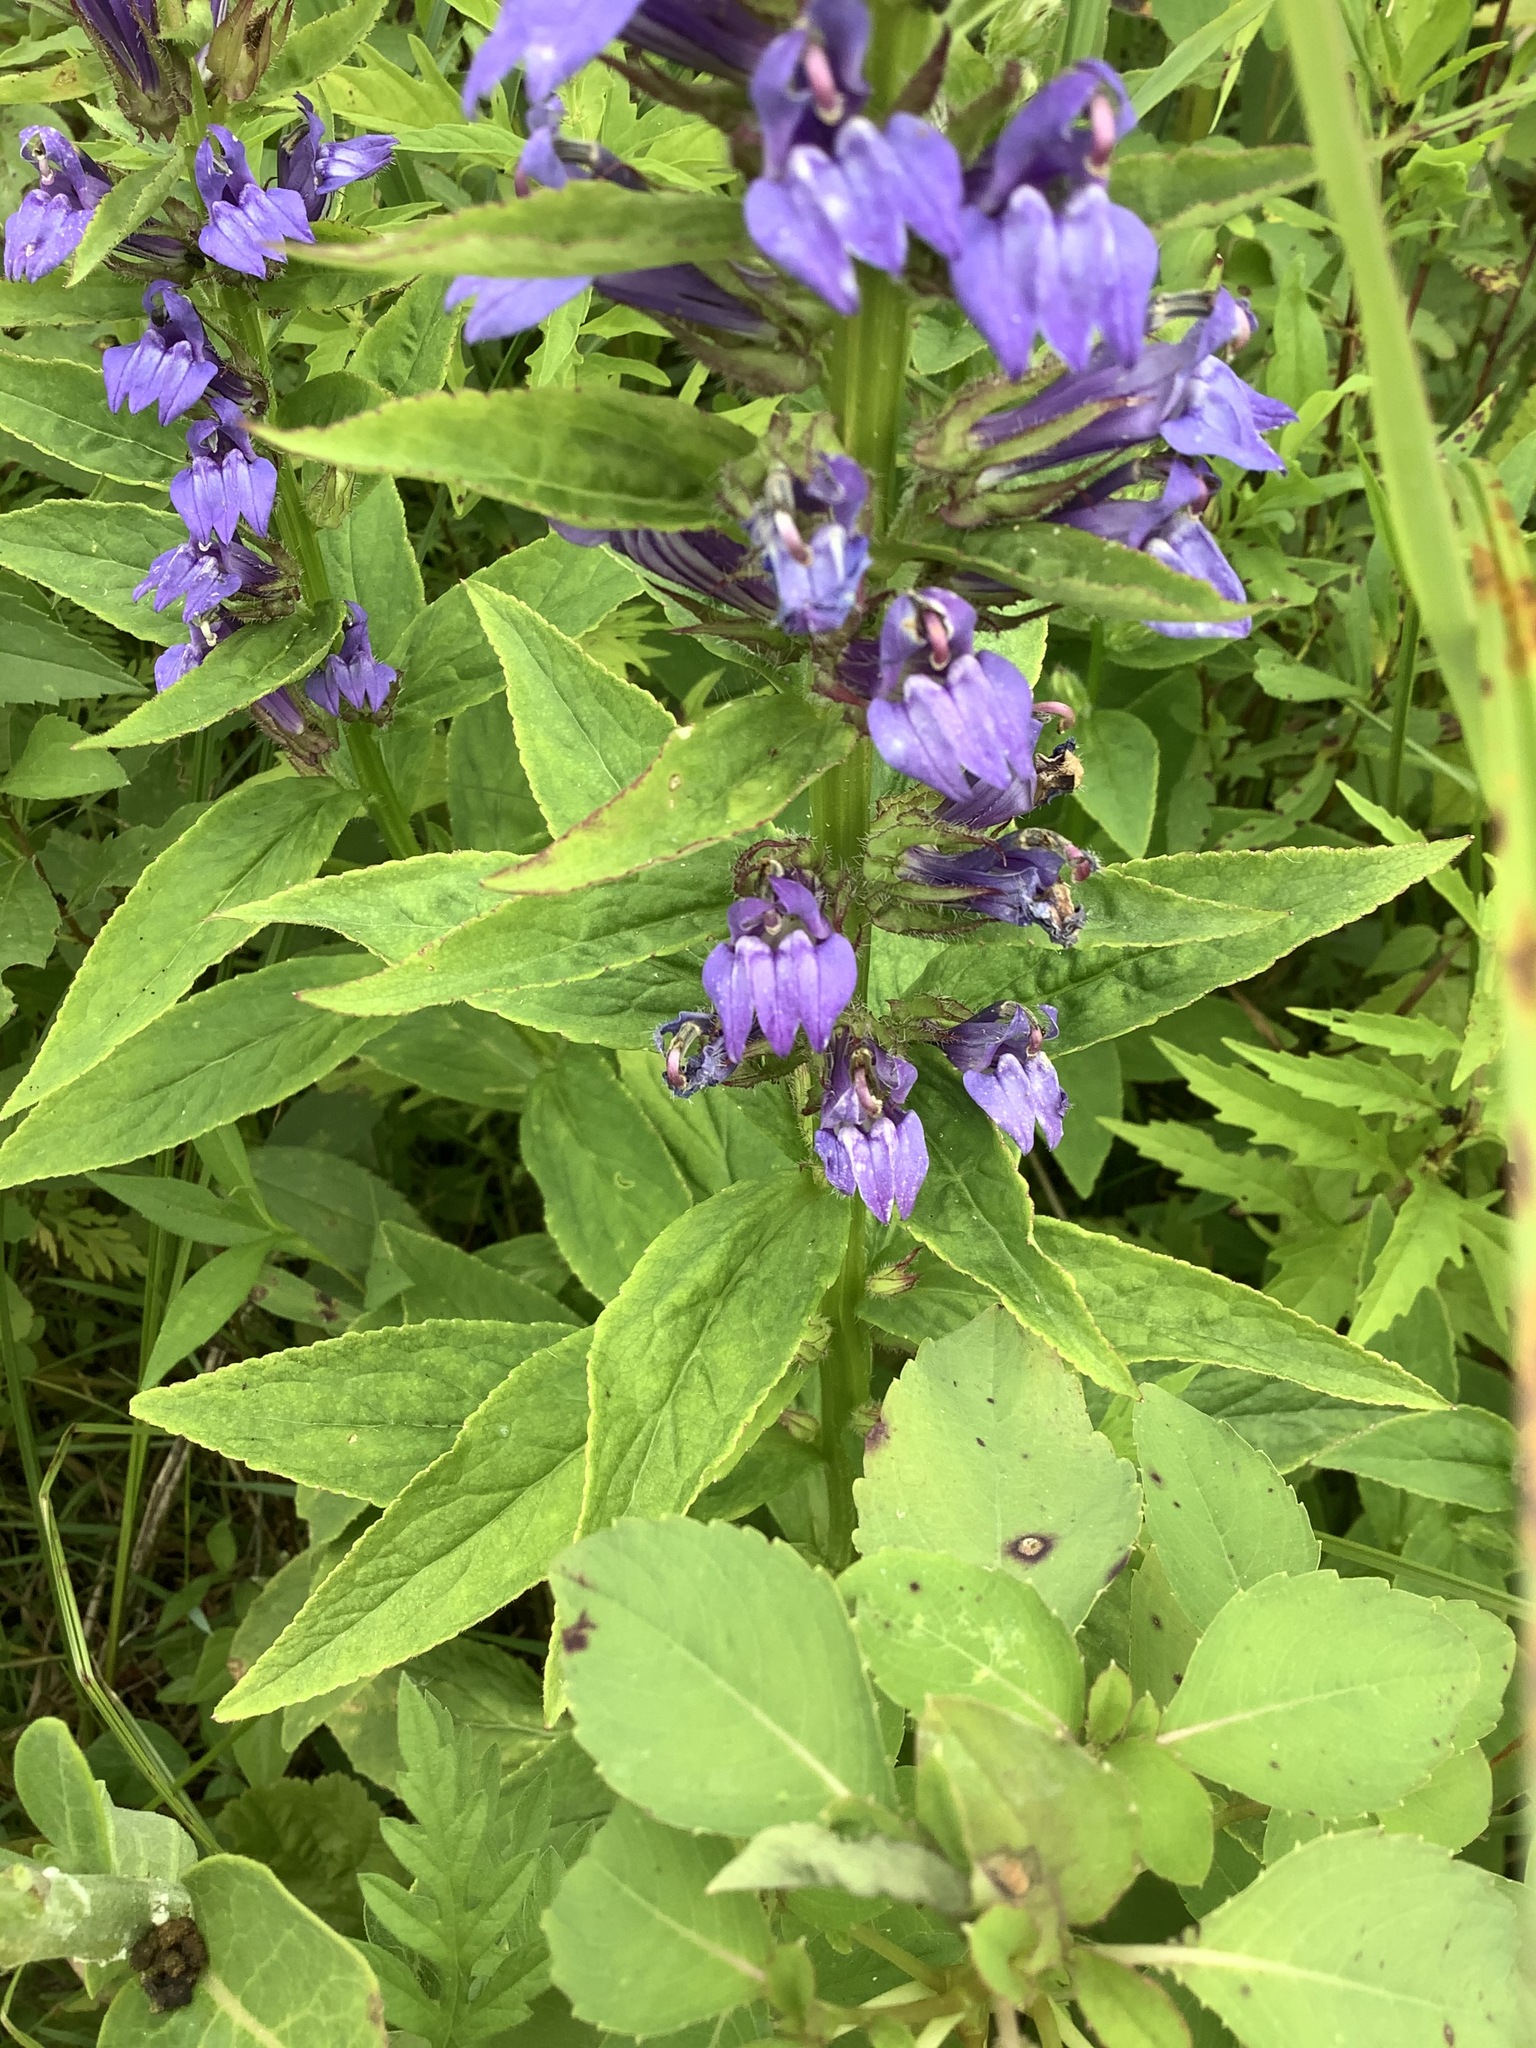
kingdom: Plantae
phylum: Tracheophyta
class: Magnoliopsida
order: Asterales
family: Campanulaceae
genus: Lobelia
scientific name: Lobelia siphilitica
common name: Great lobelia
